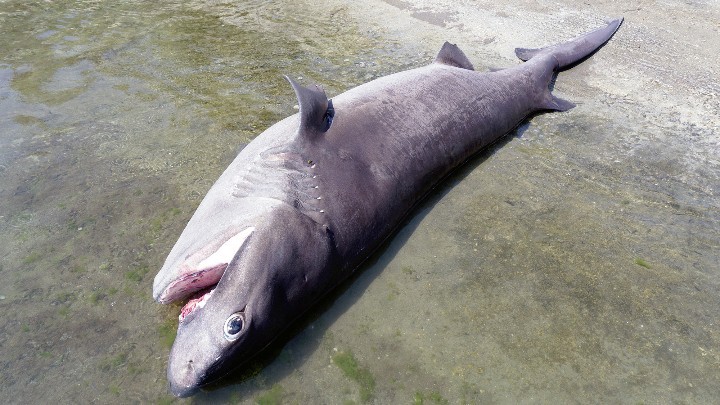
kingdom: Animalia
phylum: Chordata
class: Elasmobranchii
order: Hexanchiformes
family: Hexanchidae
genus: Hexanchus
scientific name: Hexanchus griseus
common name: Bluntnose sixgill shark
